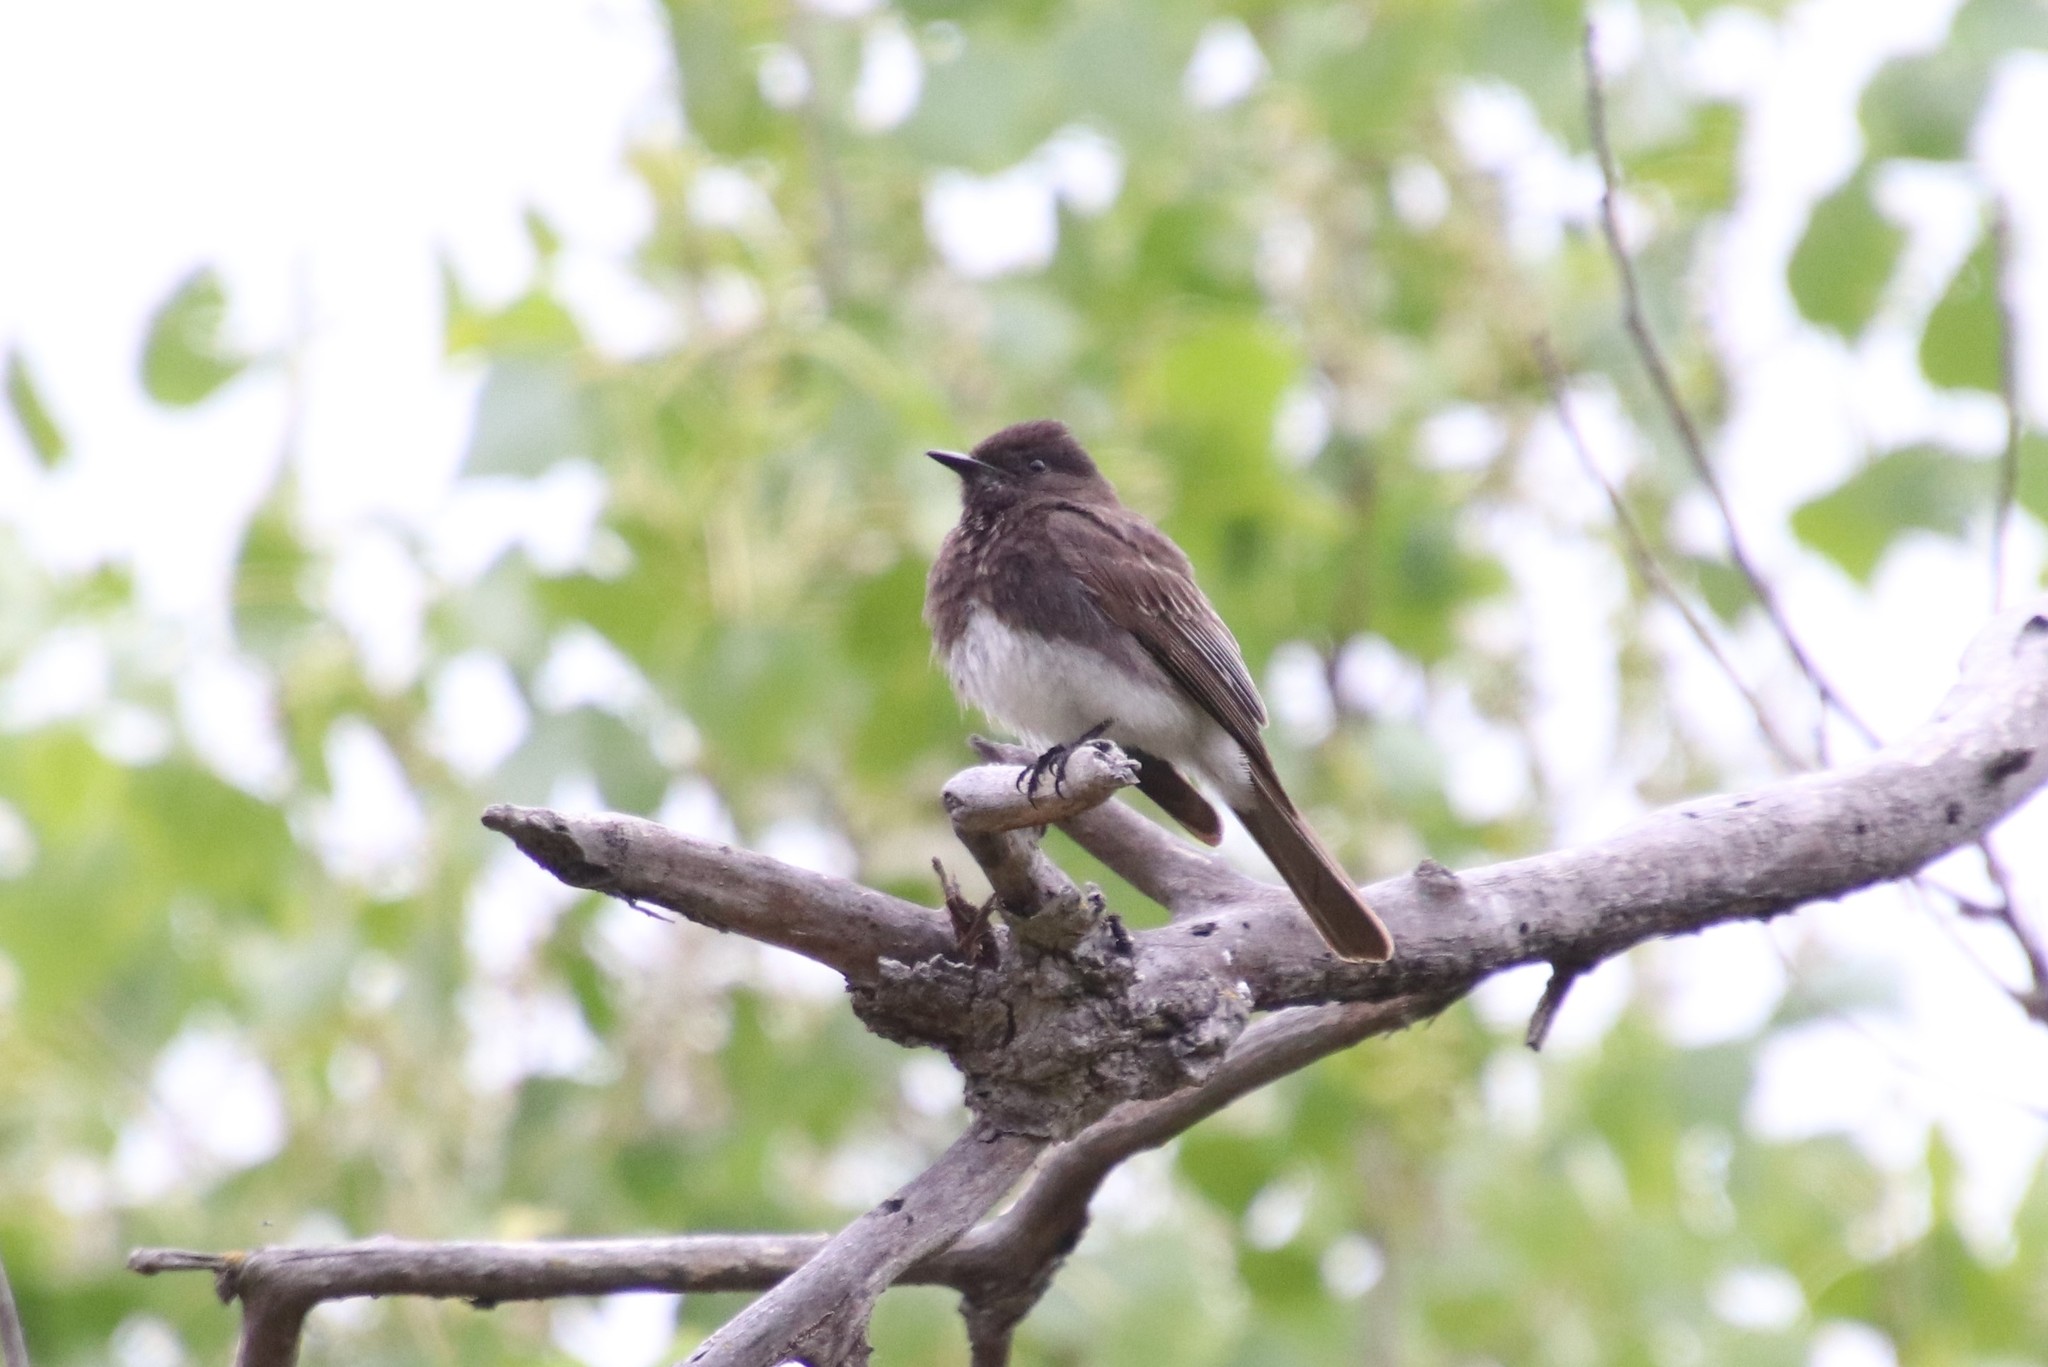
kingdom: Animalia
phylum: Chordata
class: Aves
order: Passeriformes
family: Tyrannidae
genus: Sayornis
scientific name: Sayornis nigricans
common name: Black phoebe
